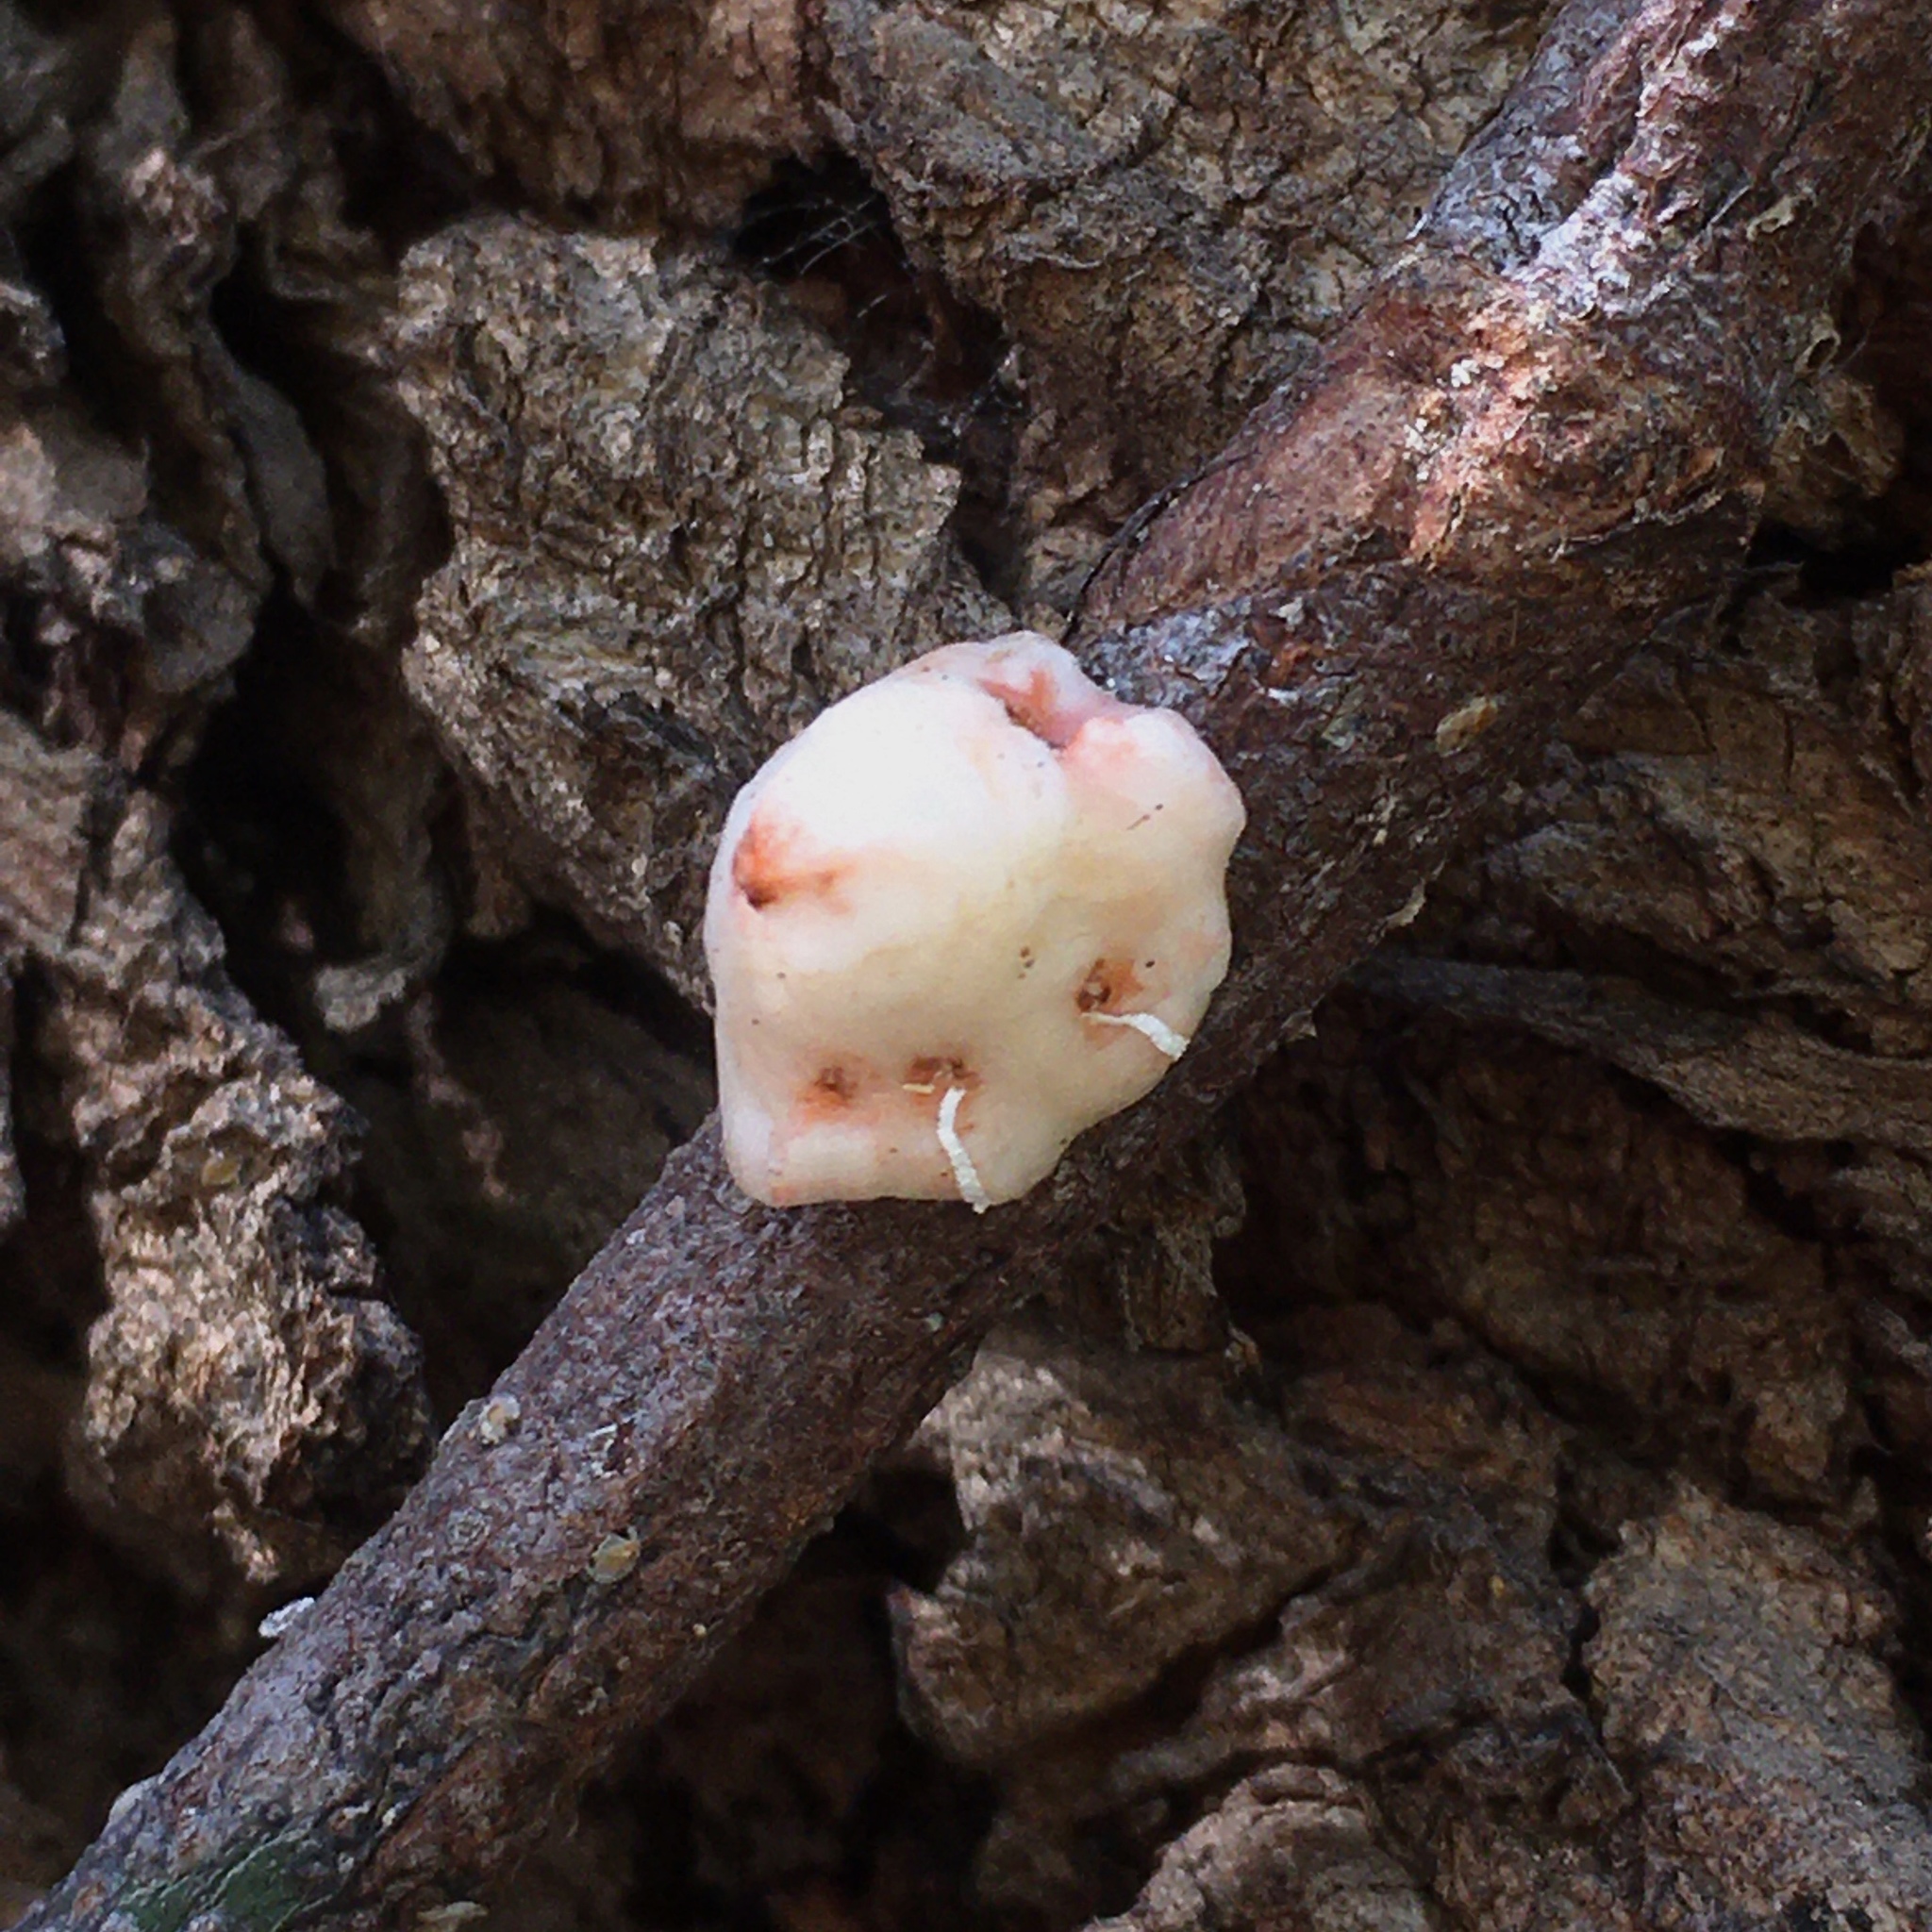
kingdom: Animalia
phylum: Arthropoda
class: Insecta
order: Hemiptera
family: Coccidae
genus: Ceroplastes
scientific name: Ceroplastes grandis
